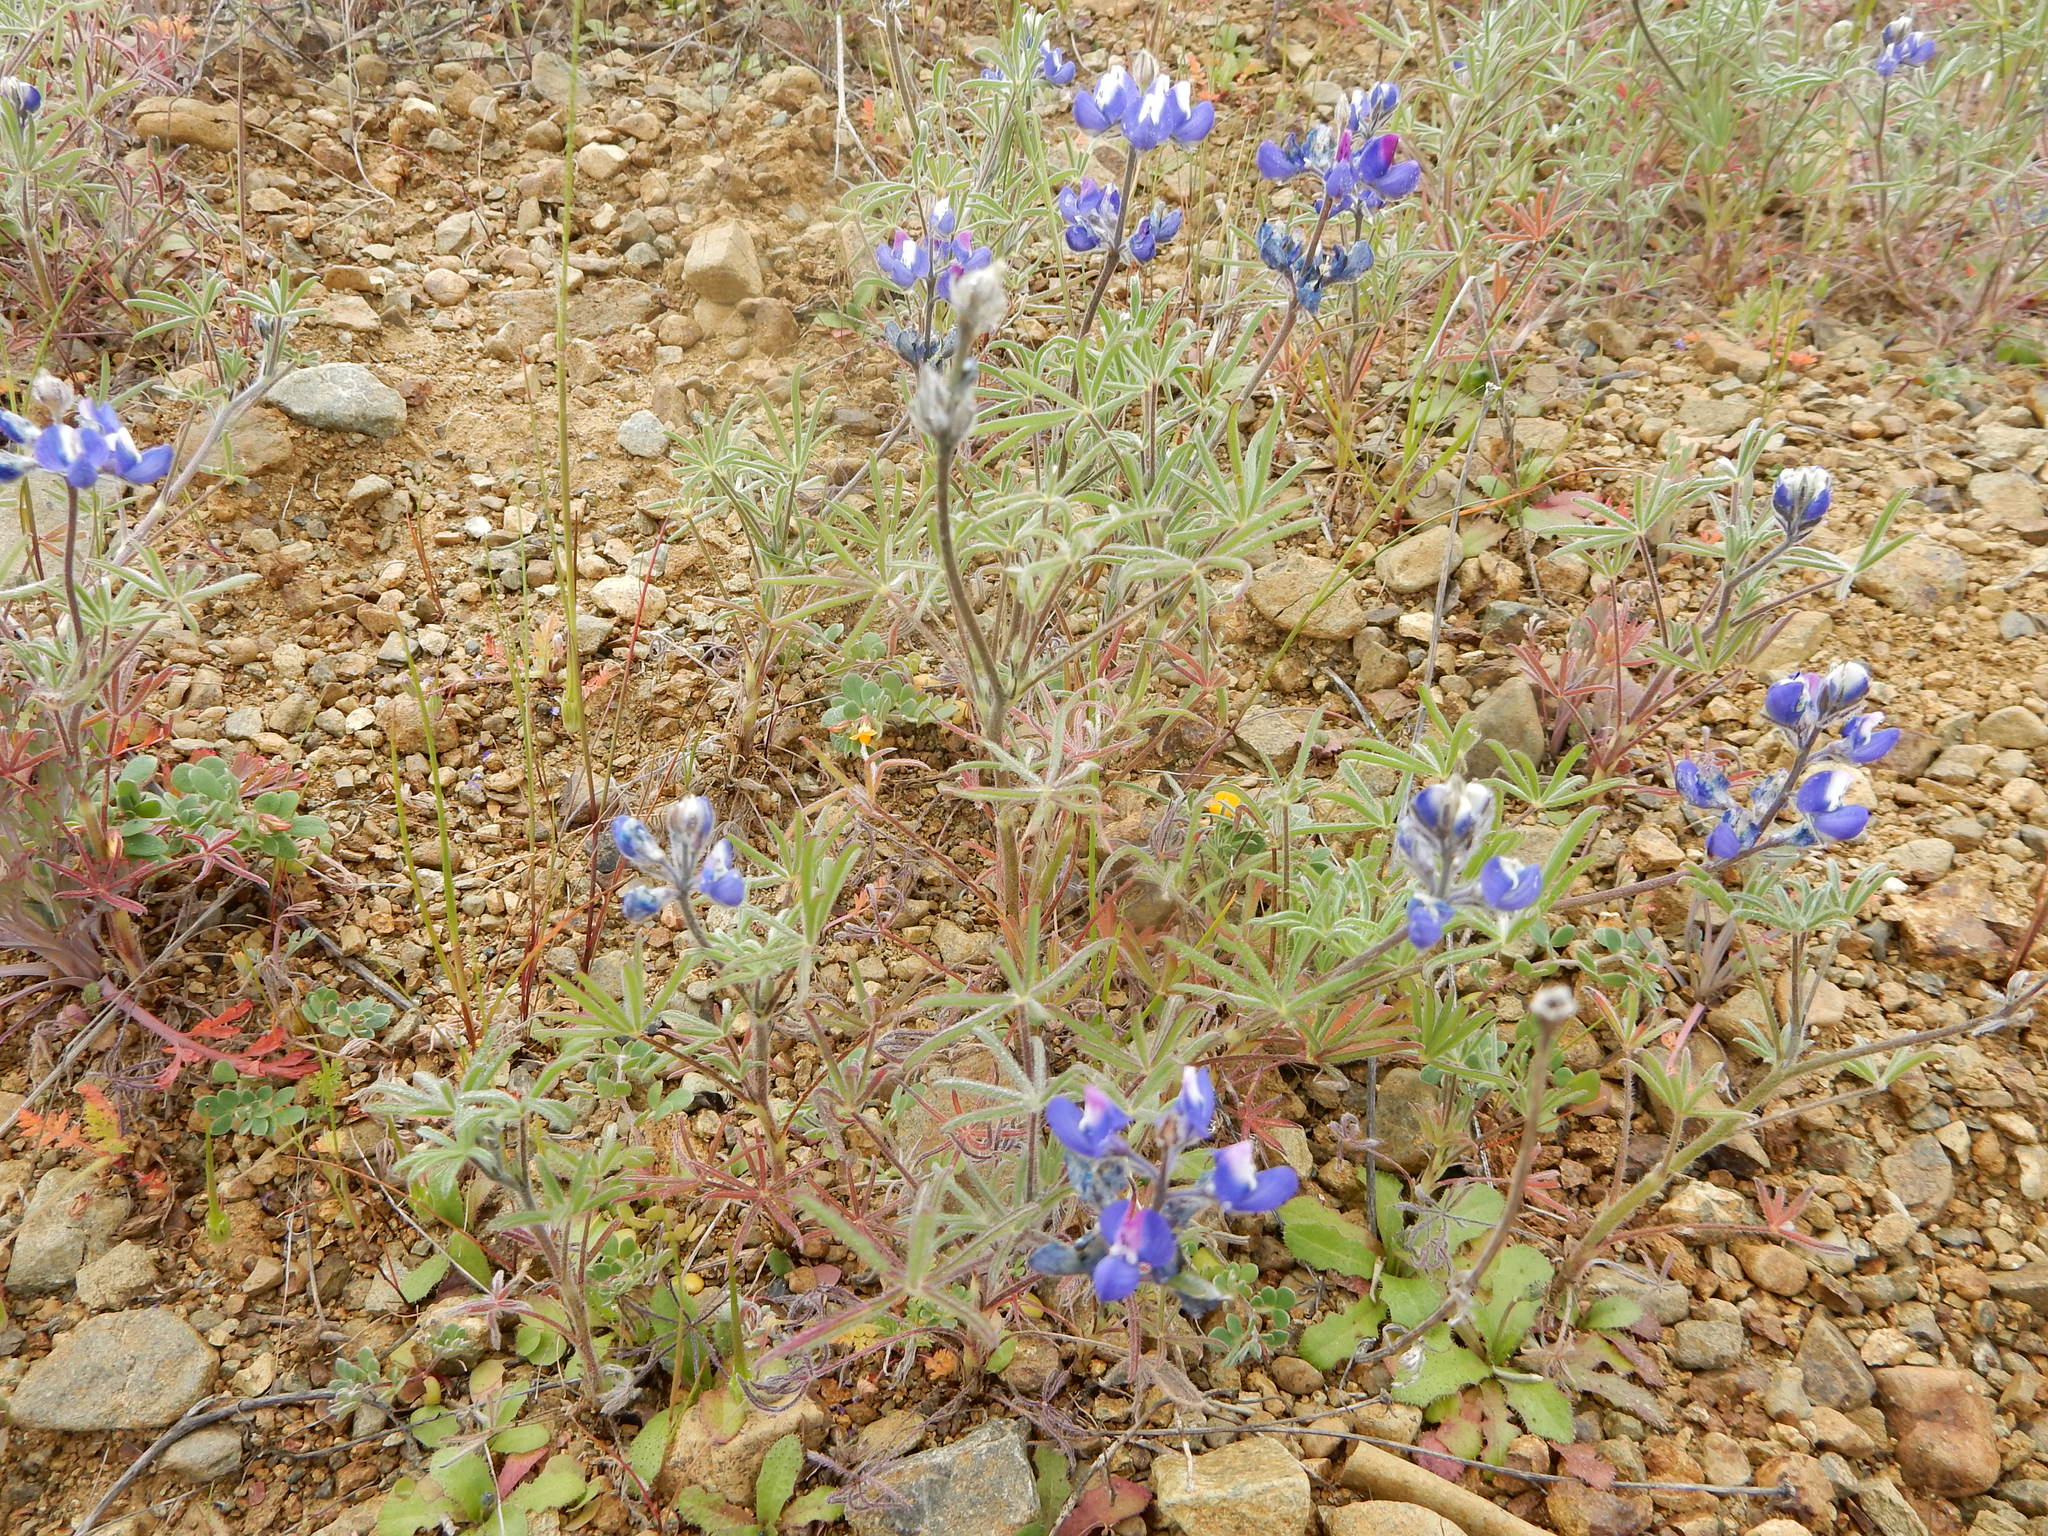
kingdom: Plantae
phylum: Tracheophyta
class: Magnoliopsida
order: Fabales
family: Fabaceae
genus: Lupinus
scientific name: Lupinus nanus
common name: Orean blue lupin
